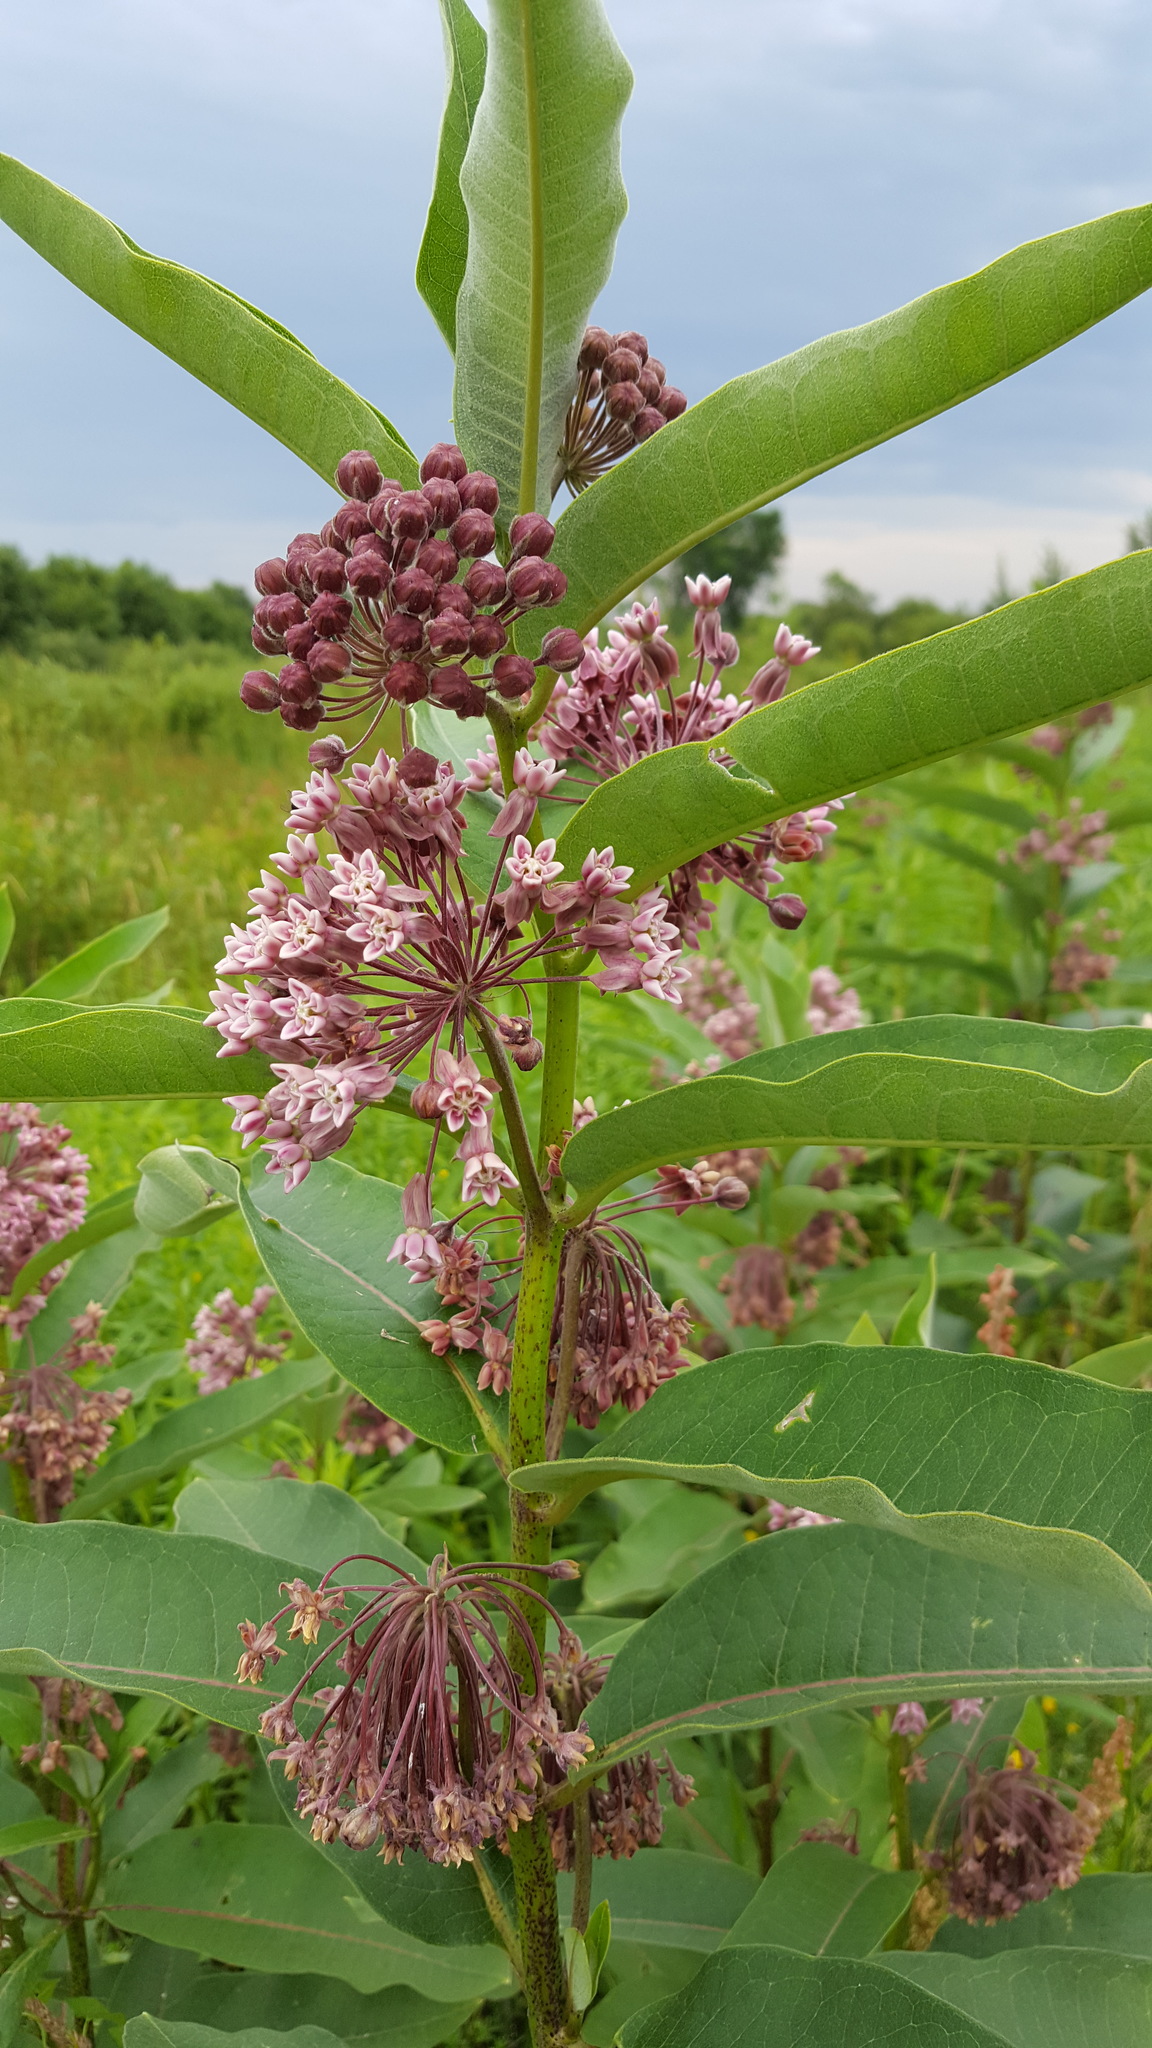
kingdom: Plantae
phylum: Tracheophyta
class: Magnoliopsida
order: Gentianales
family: Apocynaceae
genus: Asclepias
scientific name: Asclepias syriaca
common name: Common milkweed
